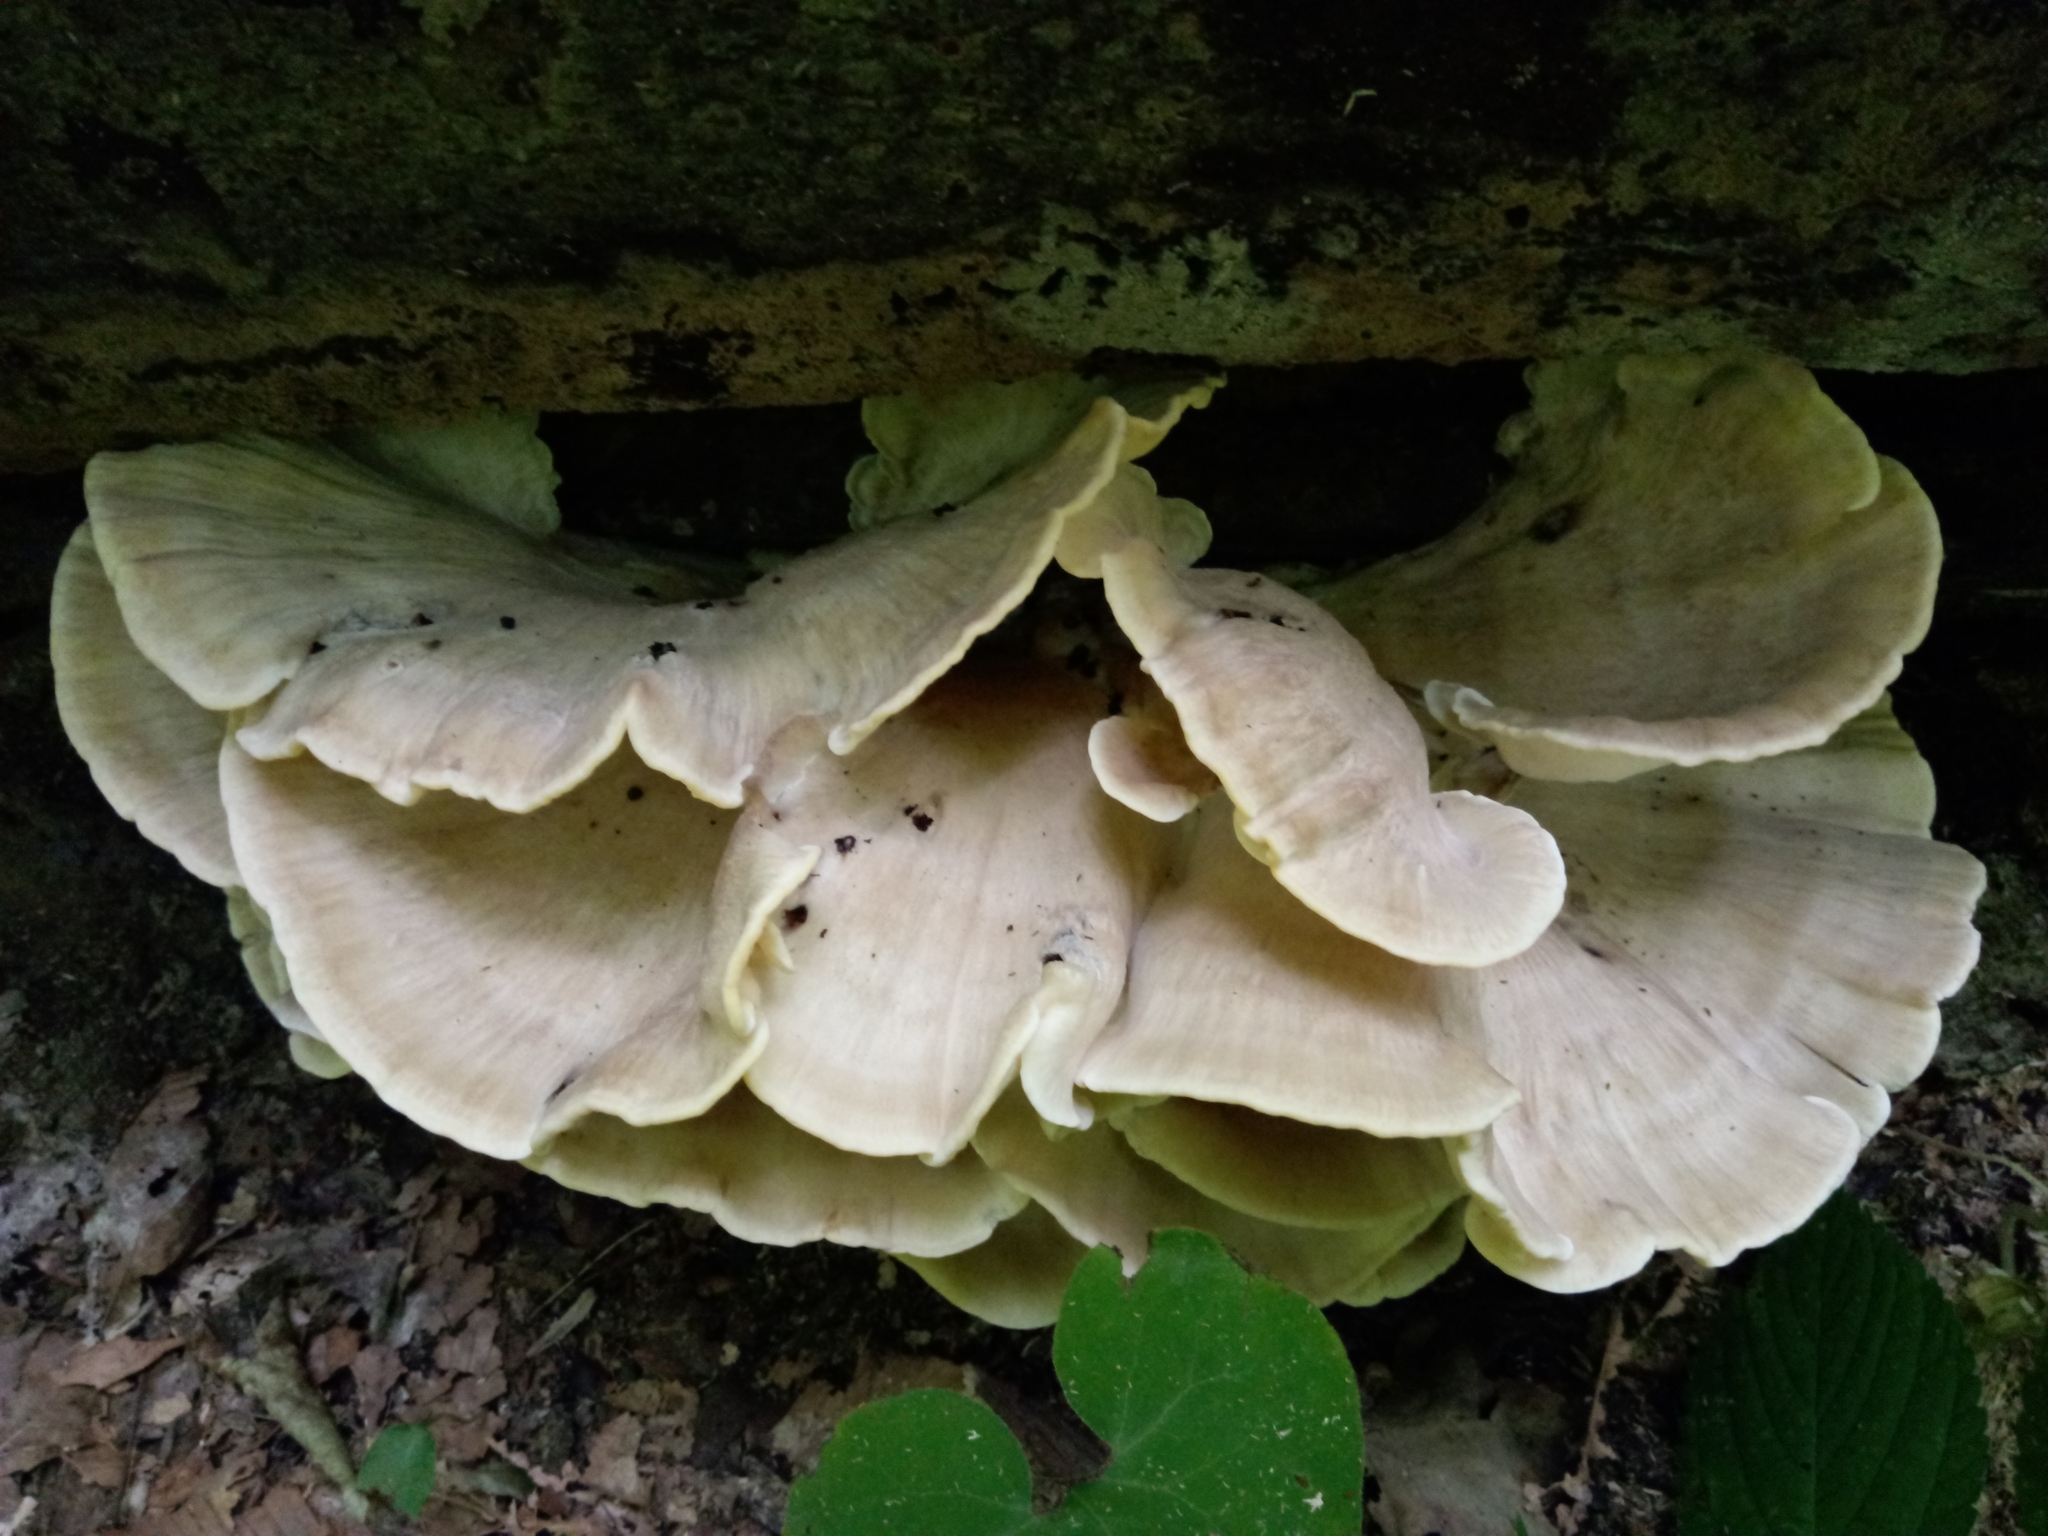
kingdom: Fungi
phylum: Basidiomycota
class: Agaricomycetes
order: Polyporales
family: Meripilaceae
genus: Meripilus
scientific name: Meripilus sumstinei
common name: Black-staining polypore
